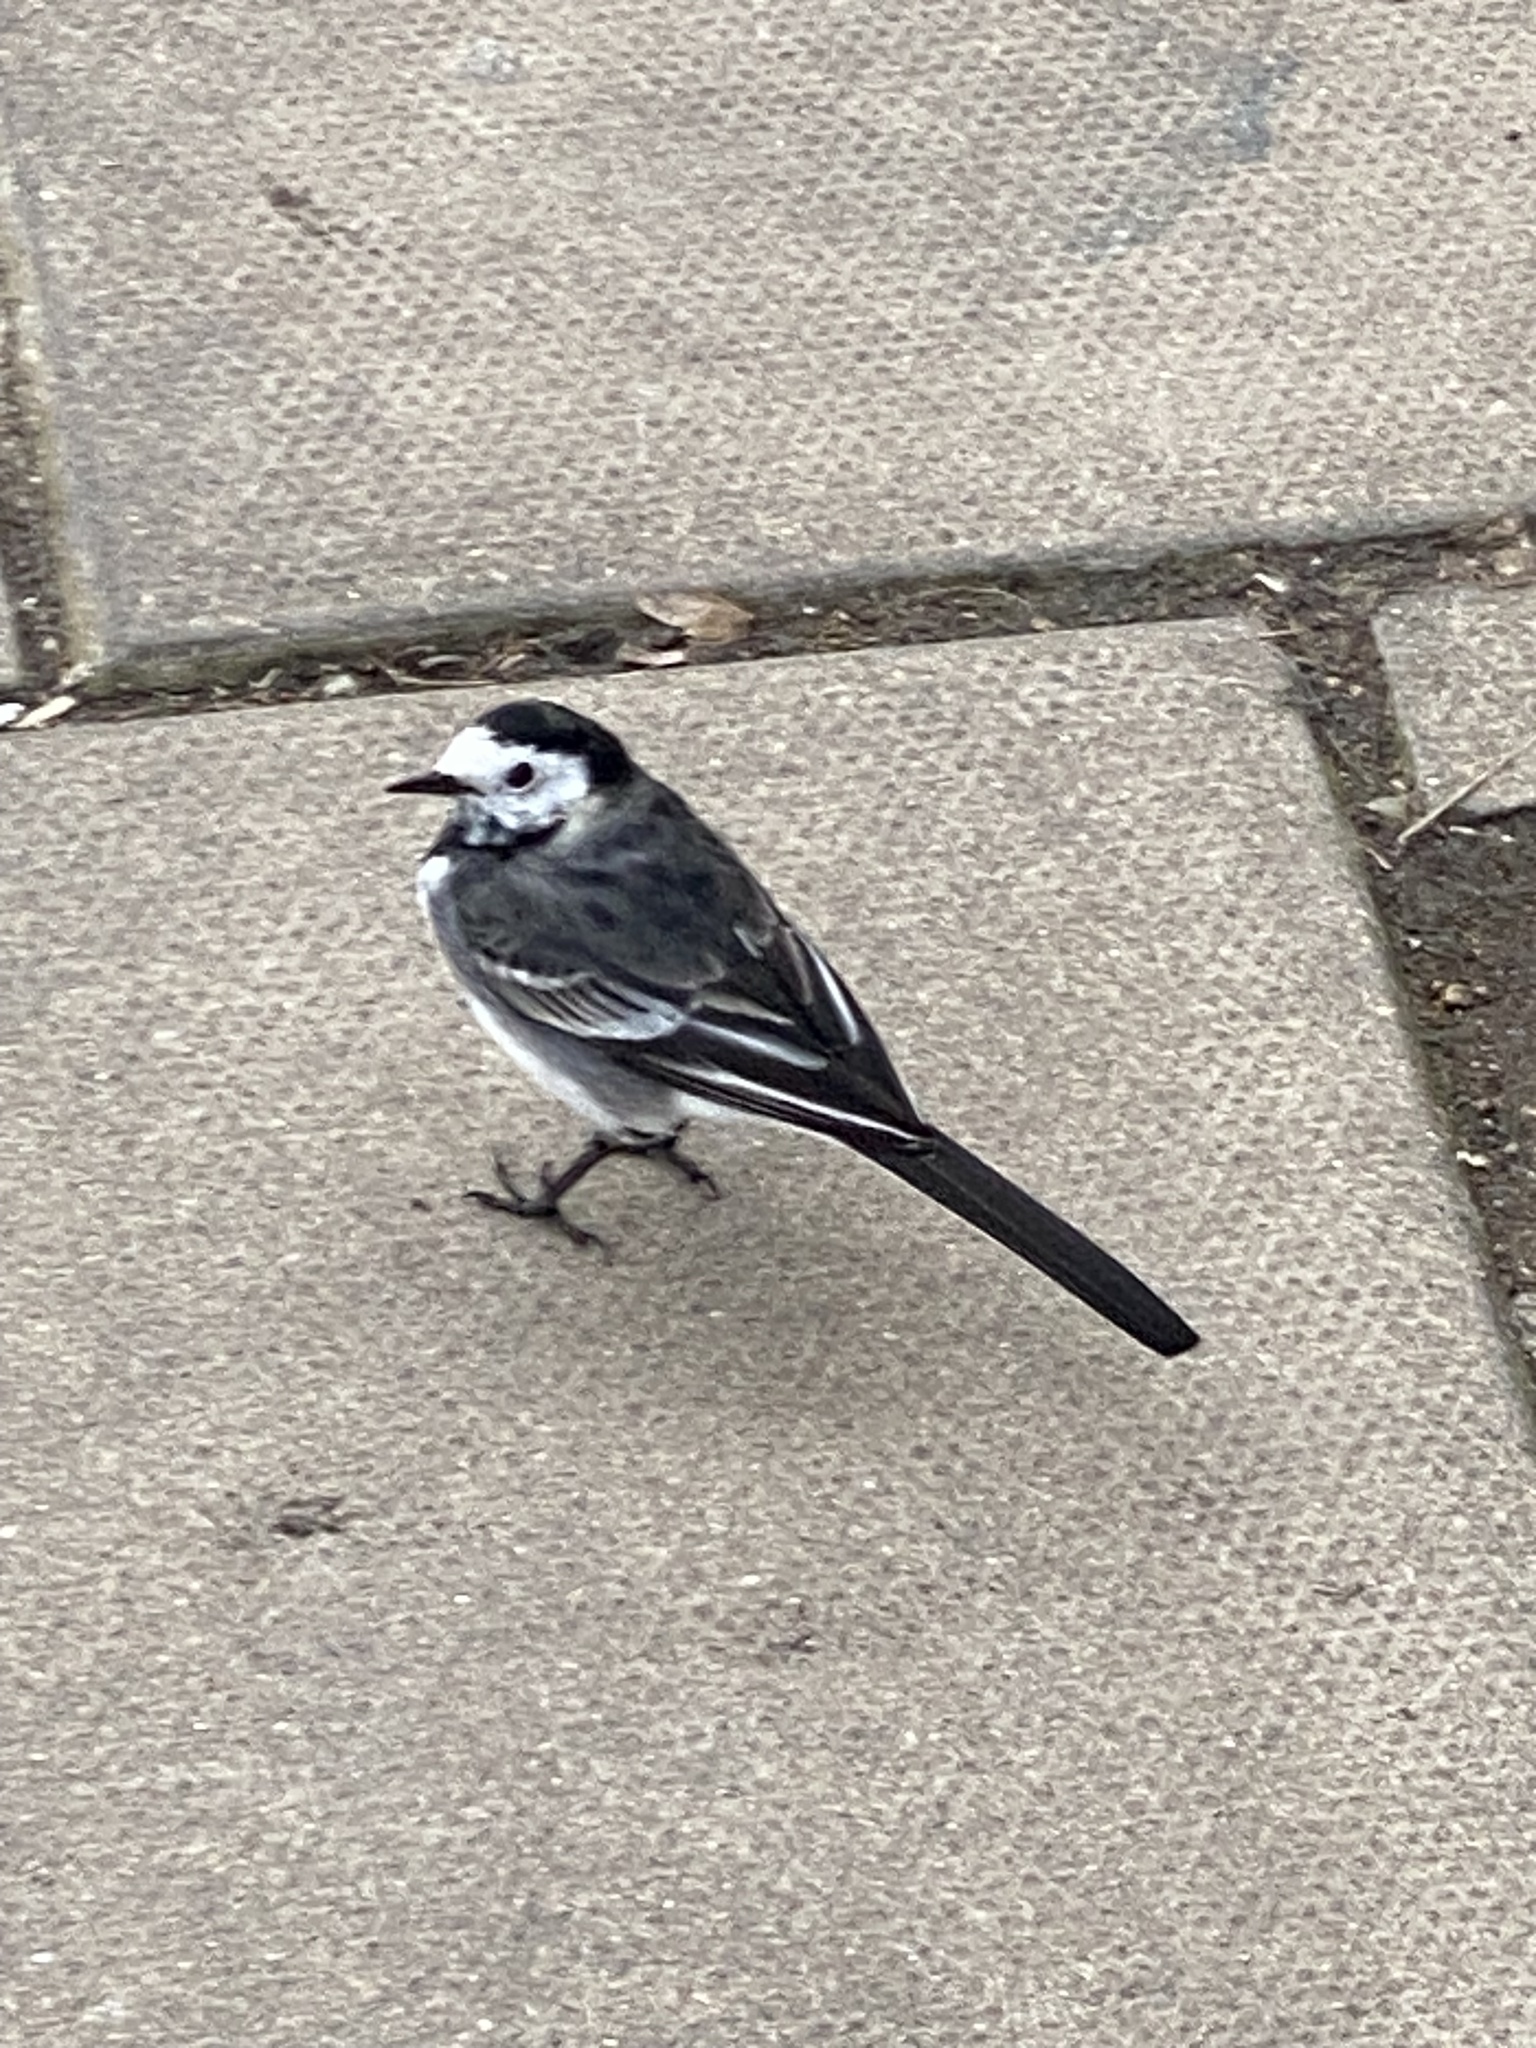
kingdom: Animalia
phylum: Chordata
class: Aves
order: Passeriformes
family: Motacillidae
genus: Motacilla
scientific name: Motacilla alba
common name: White wagtail
